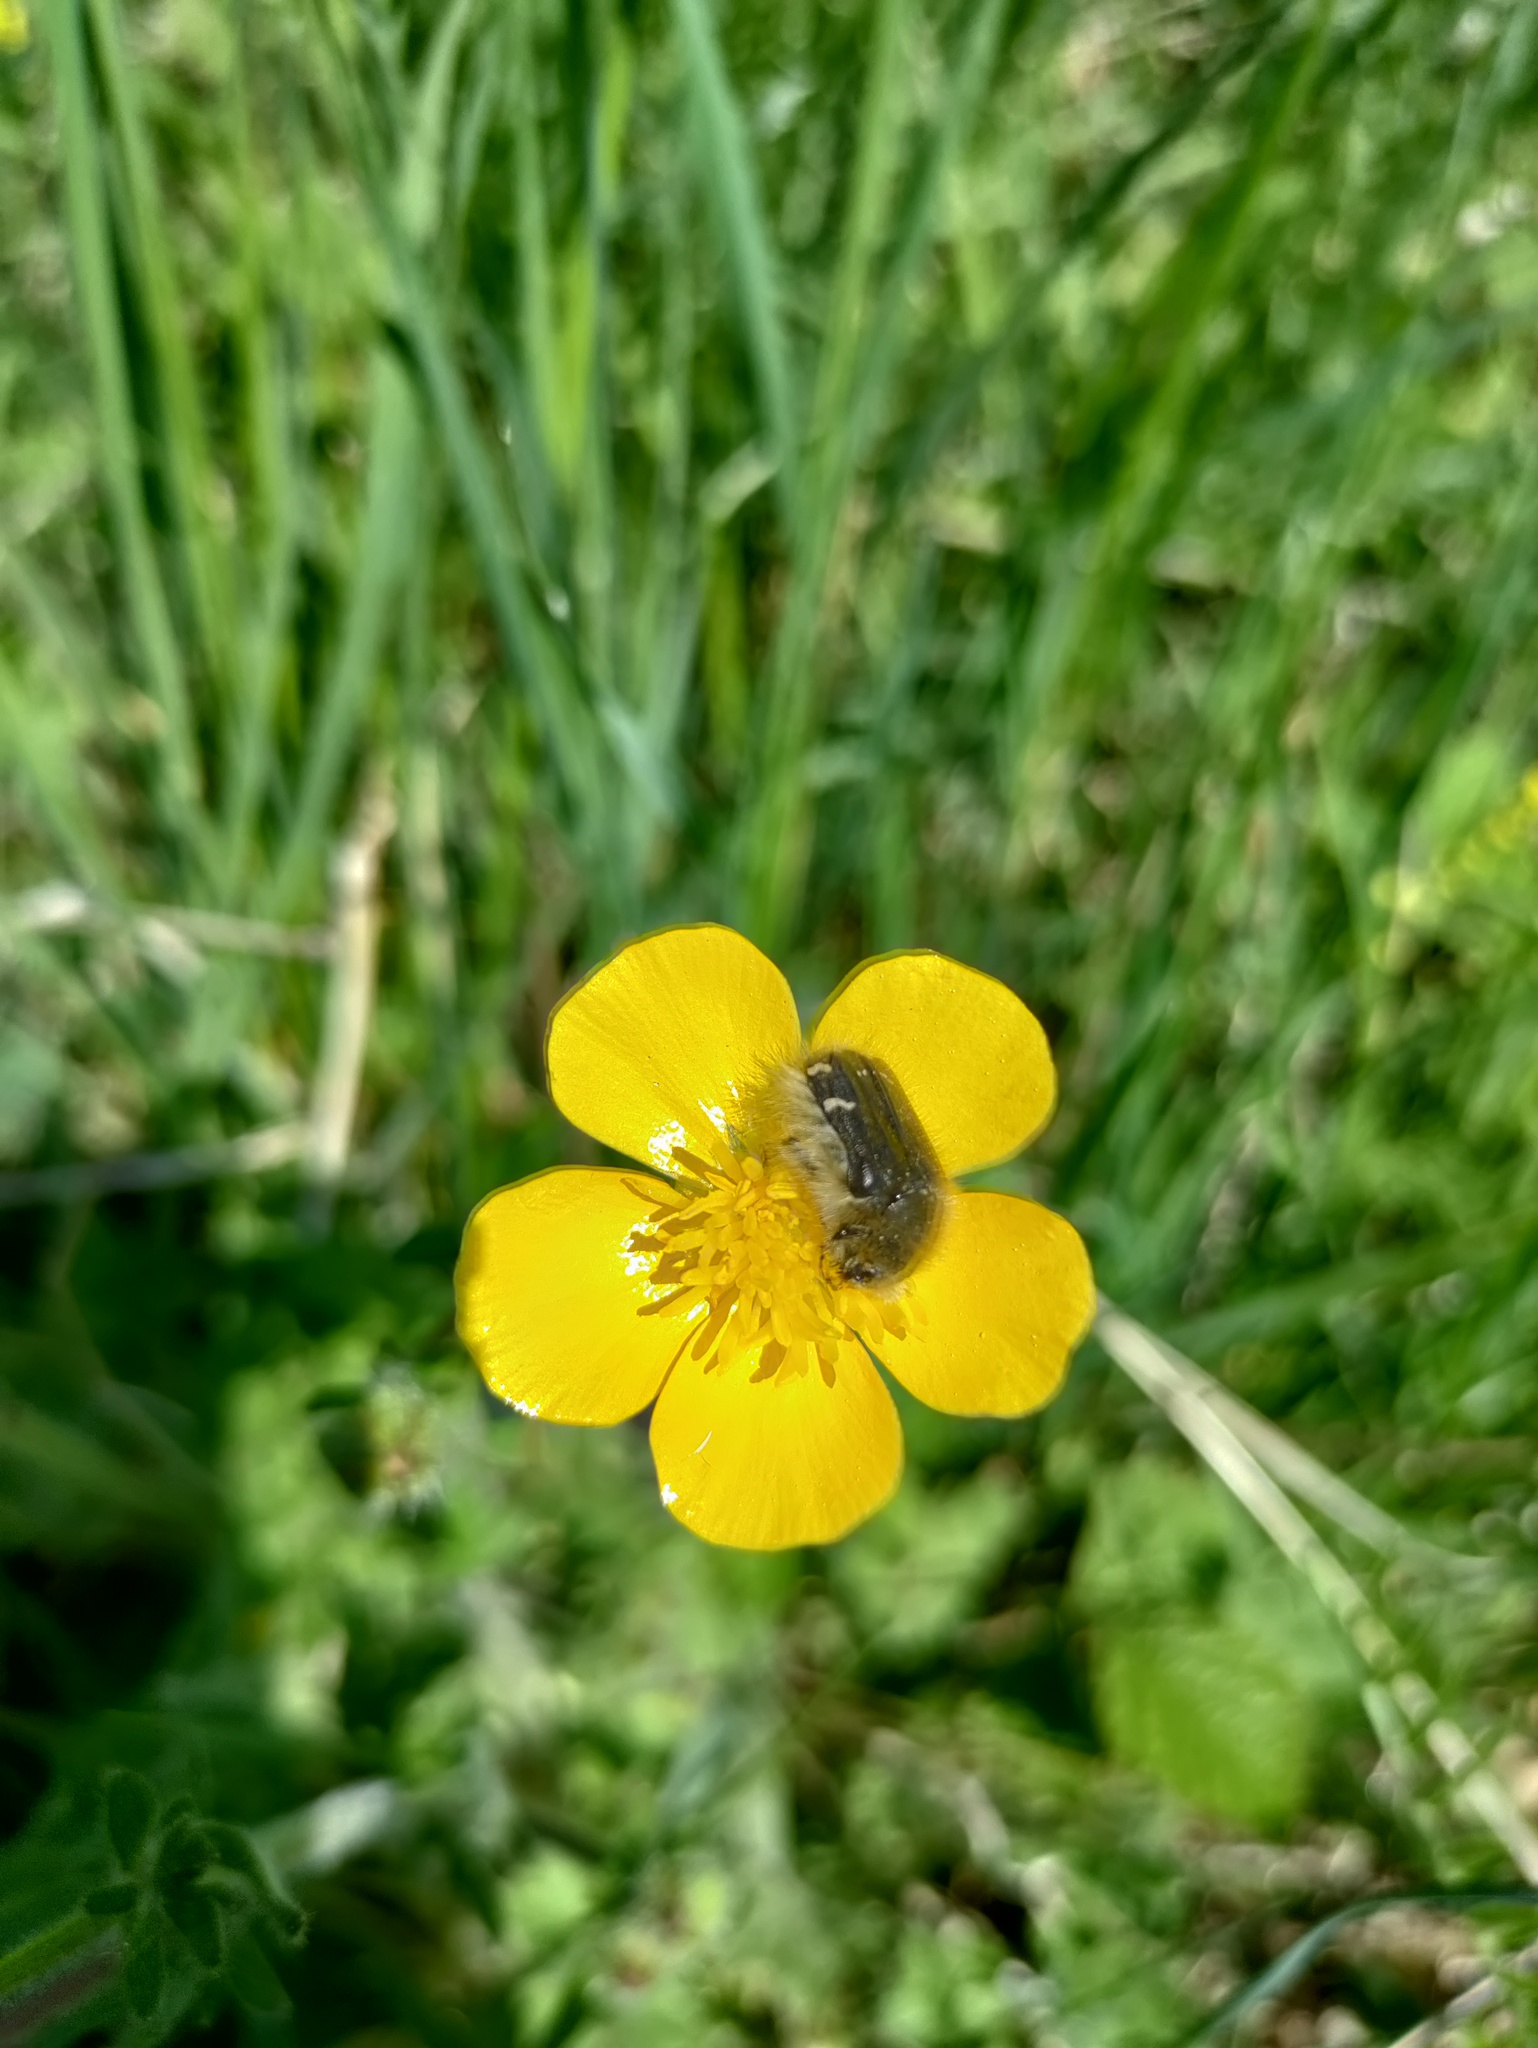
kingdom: Animalia
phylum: Arthropoda
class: Insecta
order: Coleoptera
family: Scarabaeidae
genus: Tropinota
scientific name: Tropinota hirta
